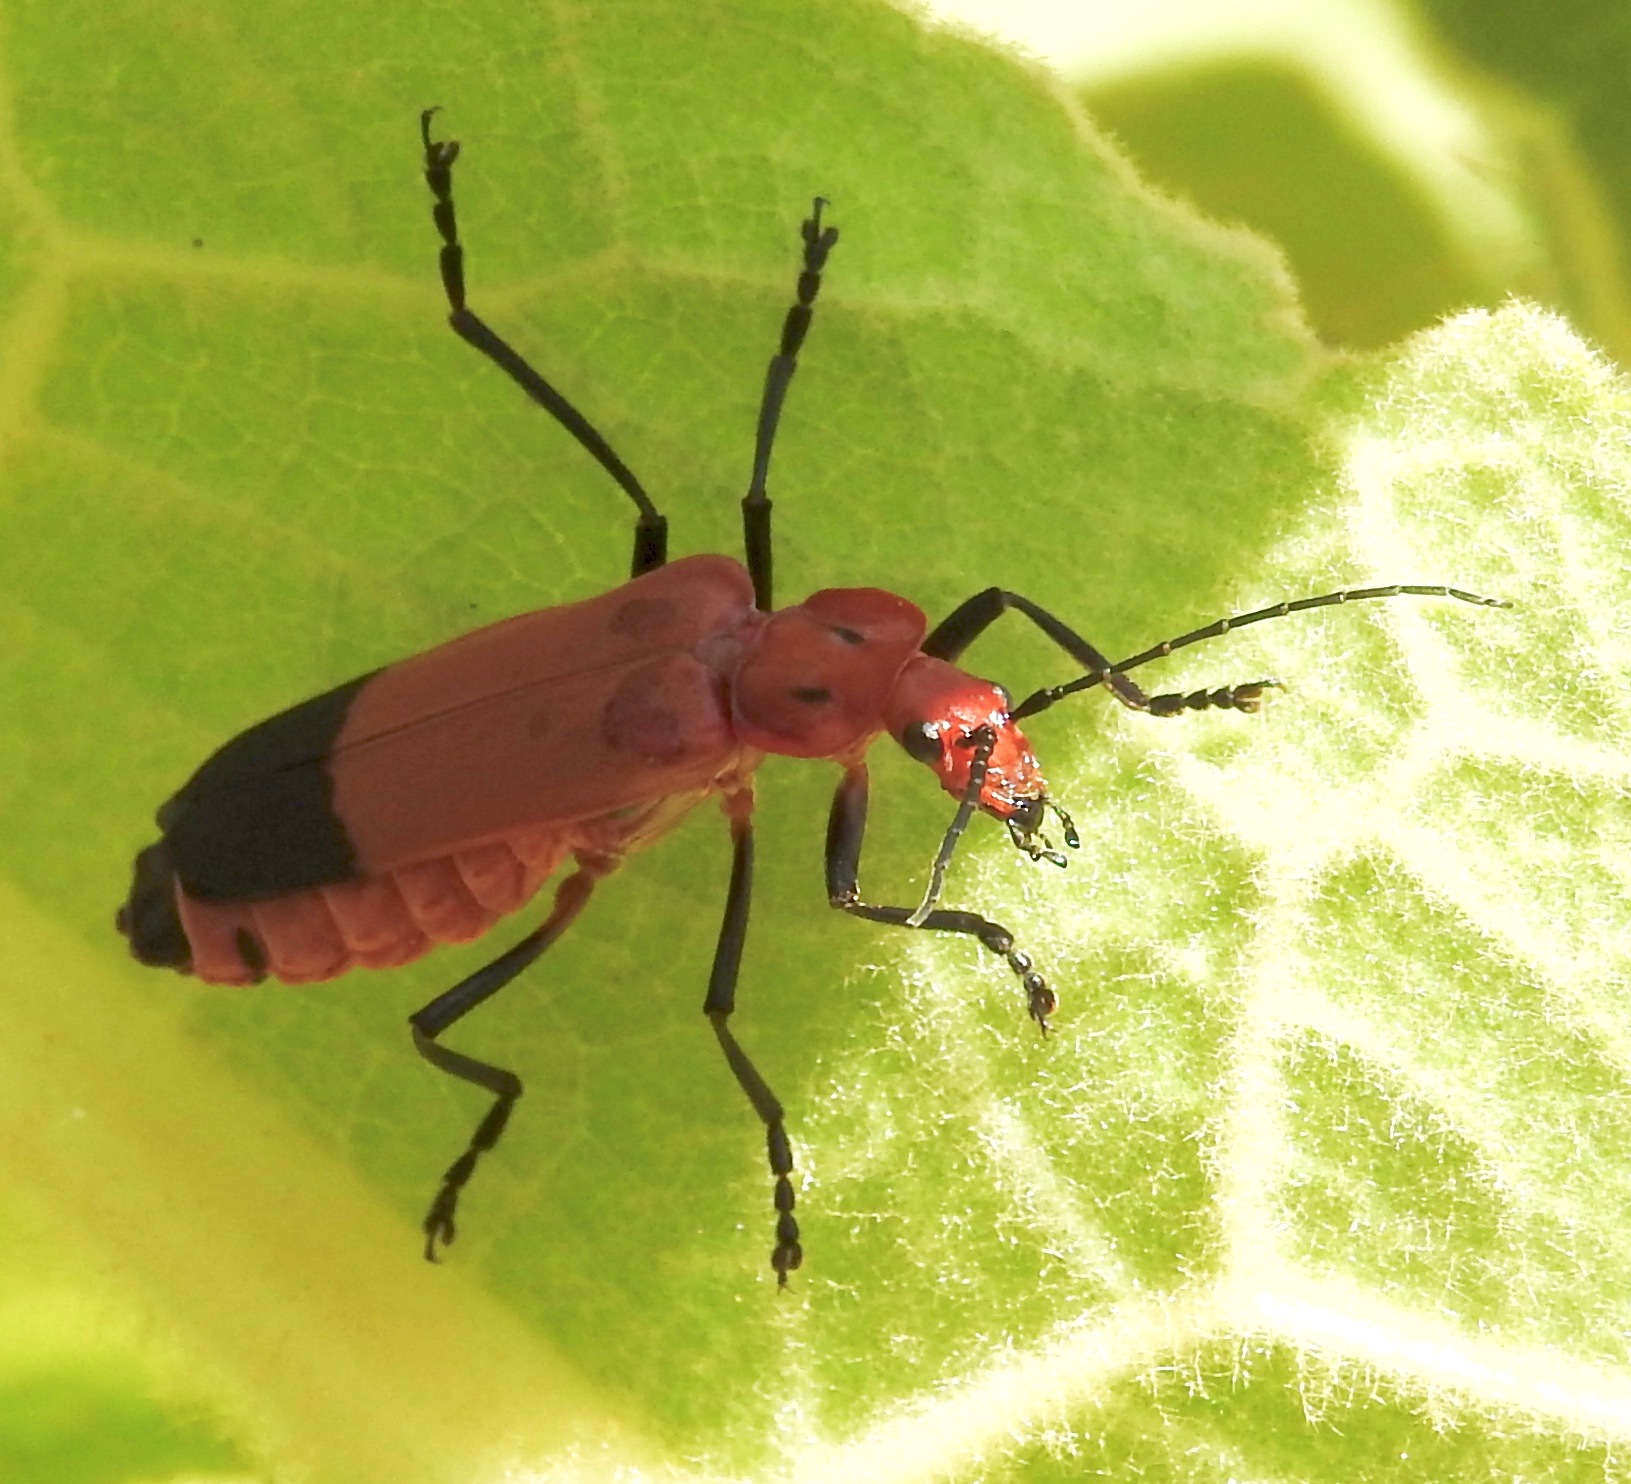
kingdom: Animalia
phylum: Arthropoda
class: Insecta
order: Coleoptera
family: Cantharidae
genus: Chauliognathus
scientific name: Chauliognathus lecontei
